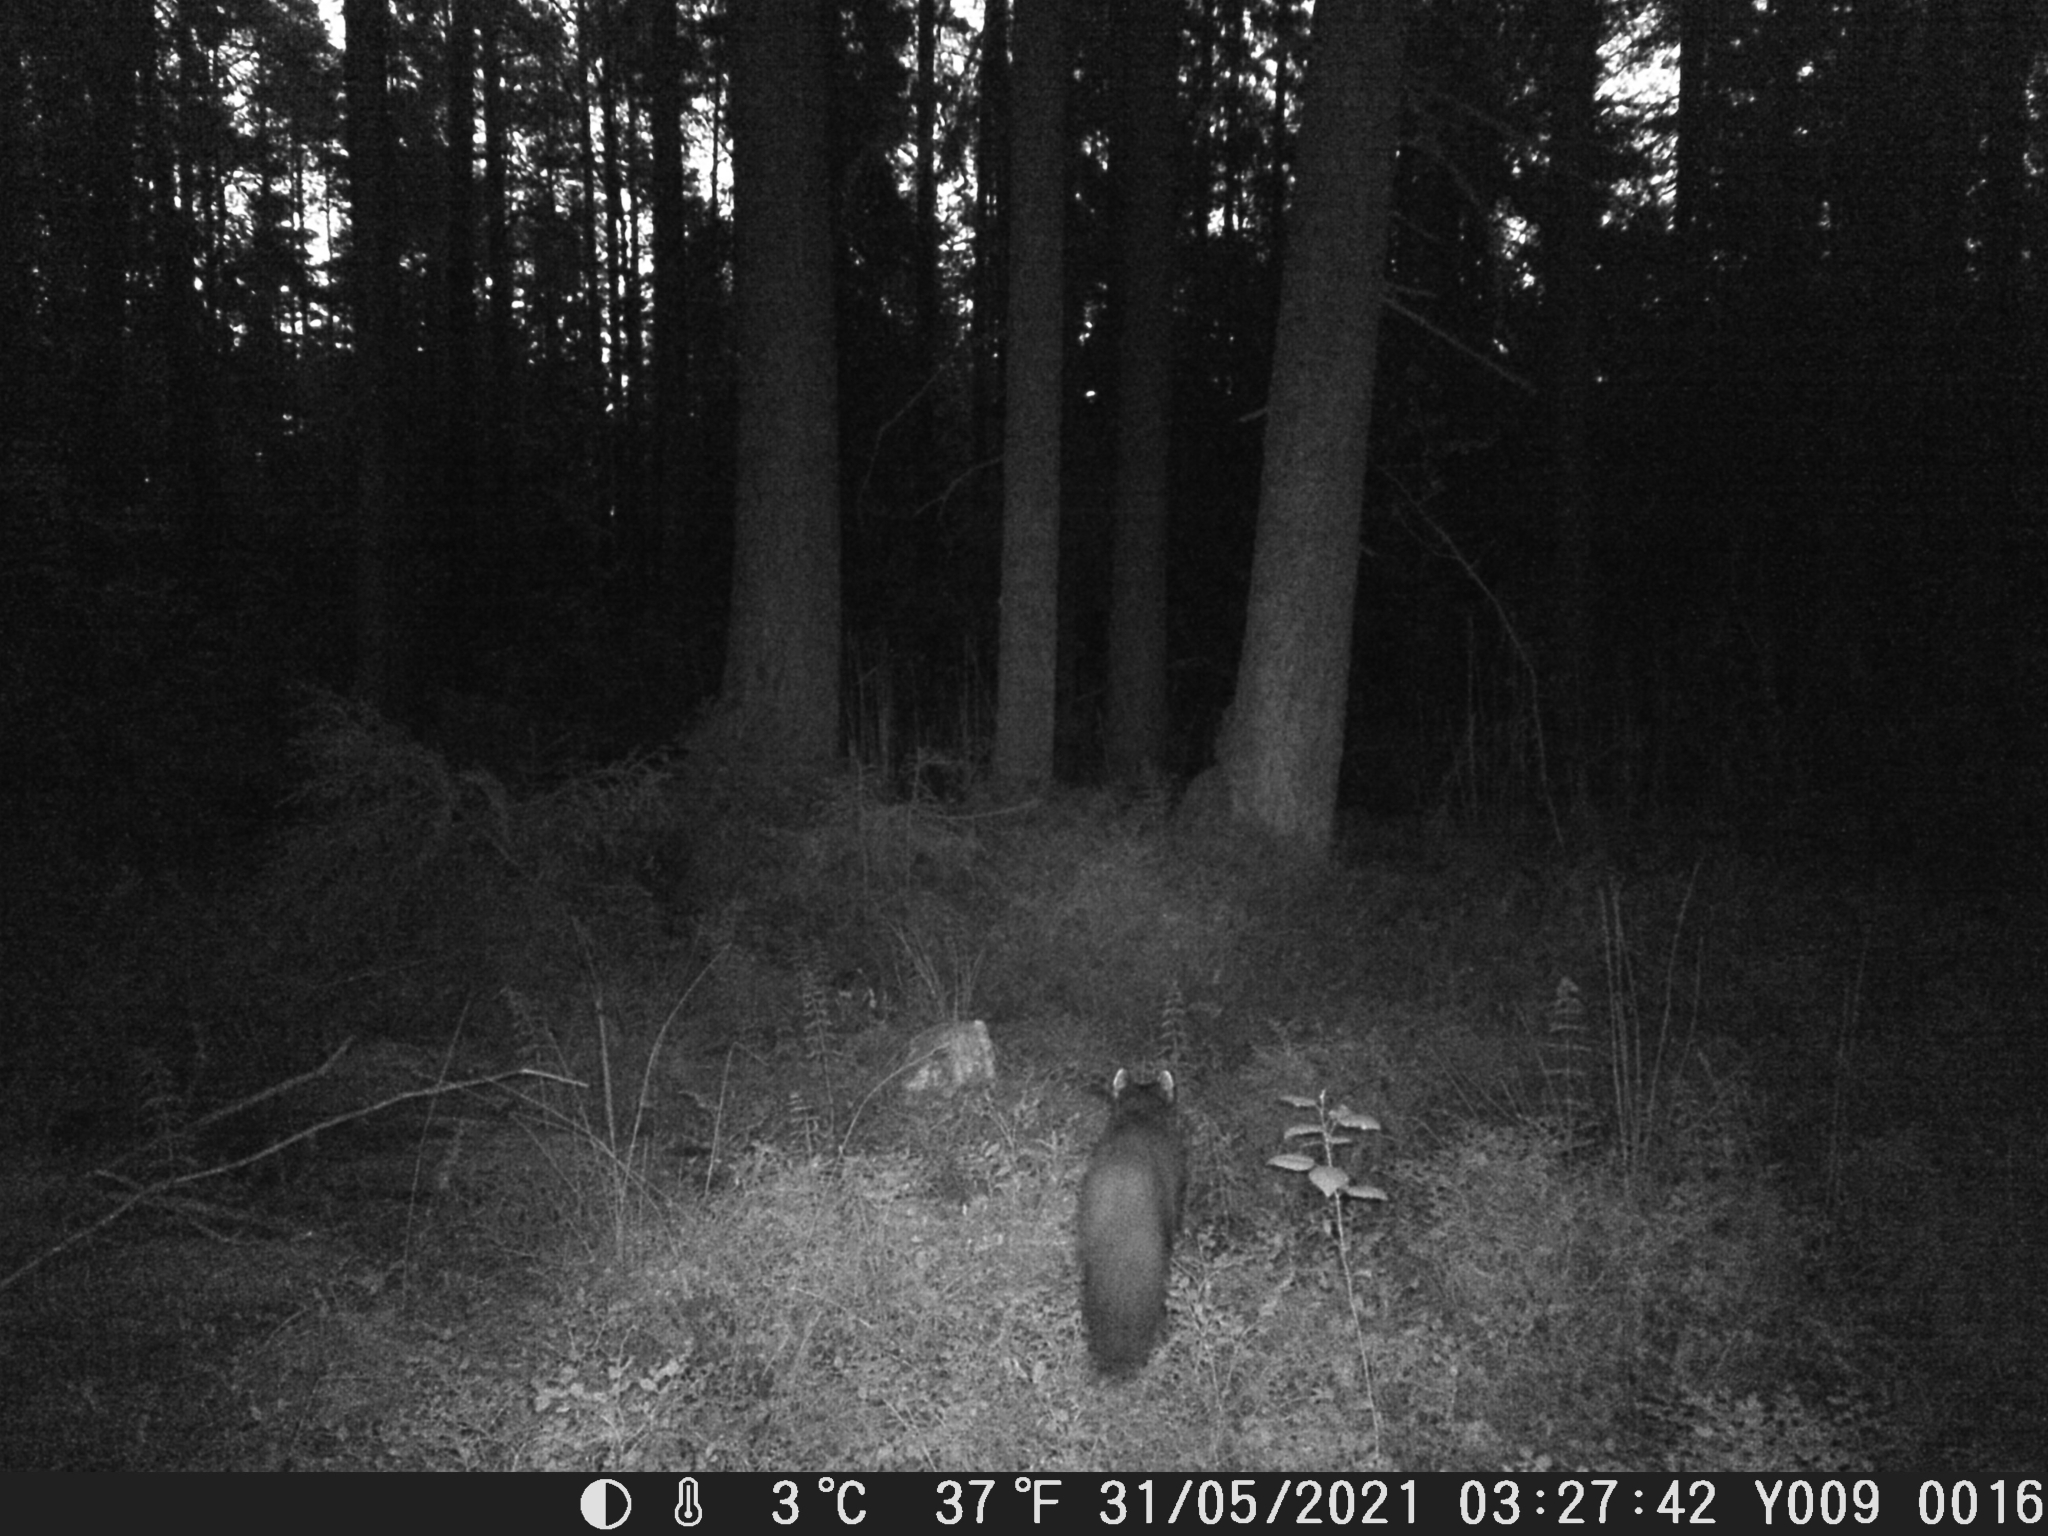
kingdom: Animalia
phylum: Chordata
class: Mammalia
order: Carnivora
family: Mustelidae
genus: Martes
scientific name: Martes martes
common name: European pine marten
